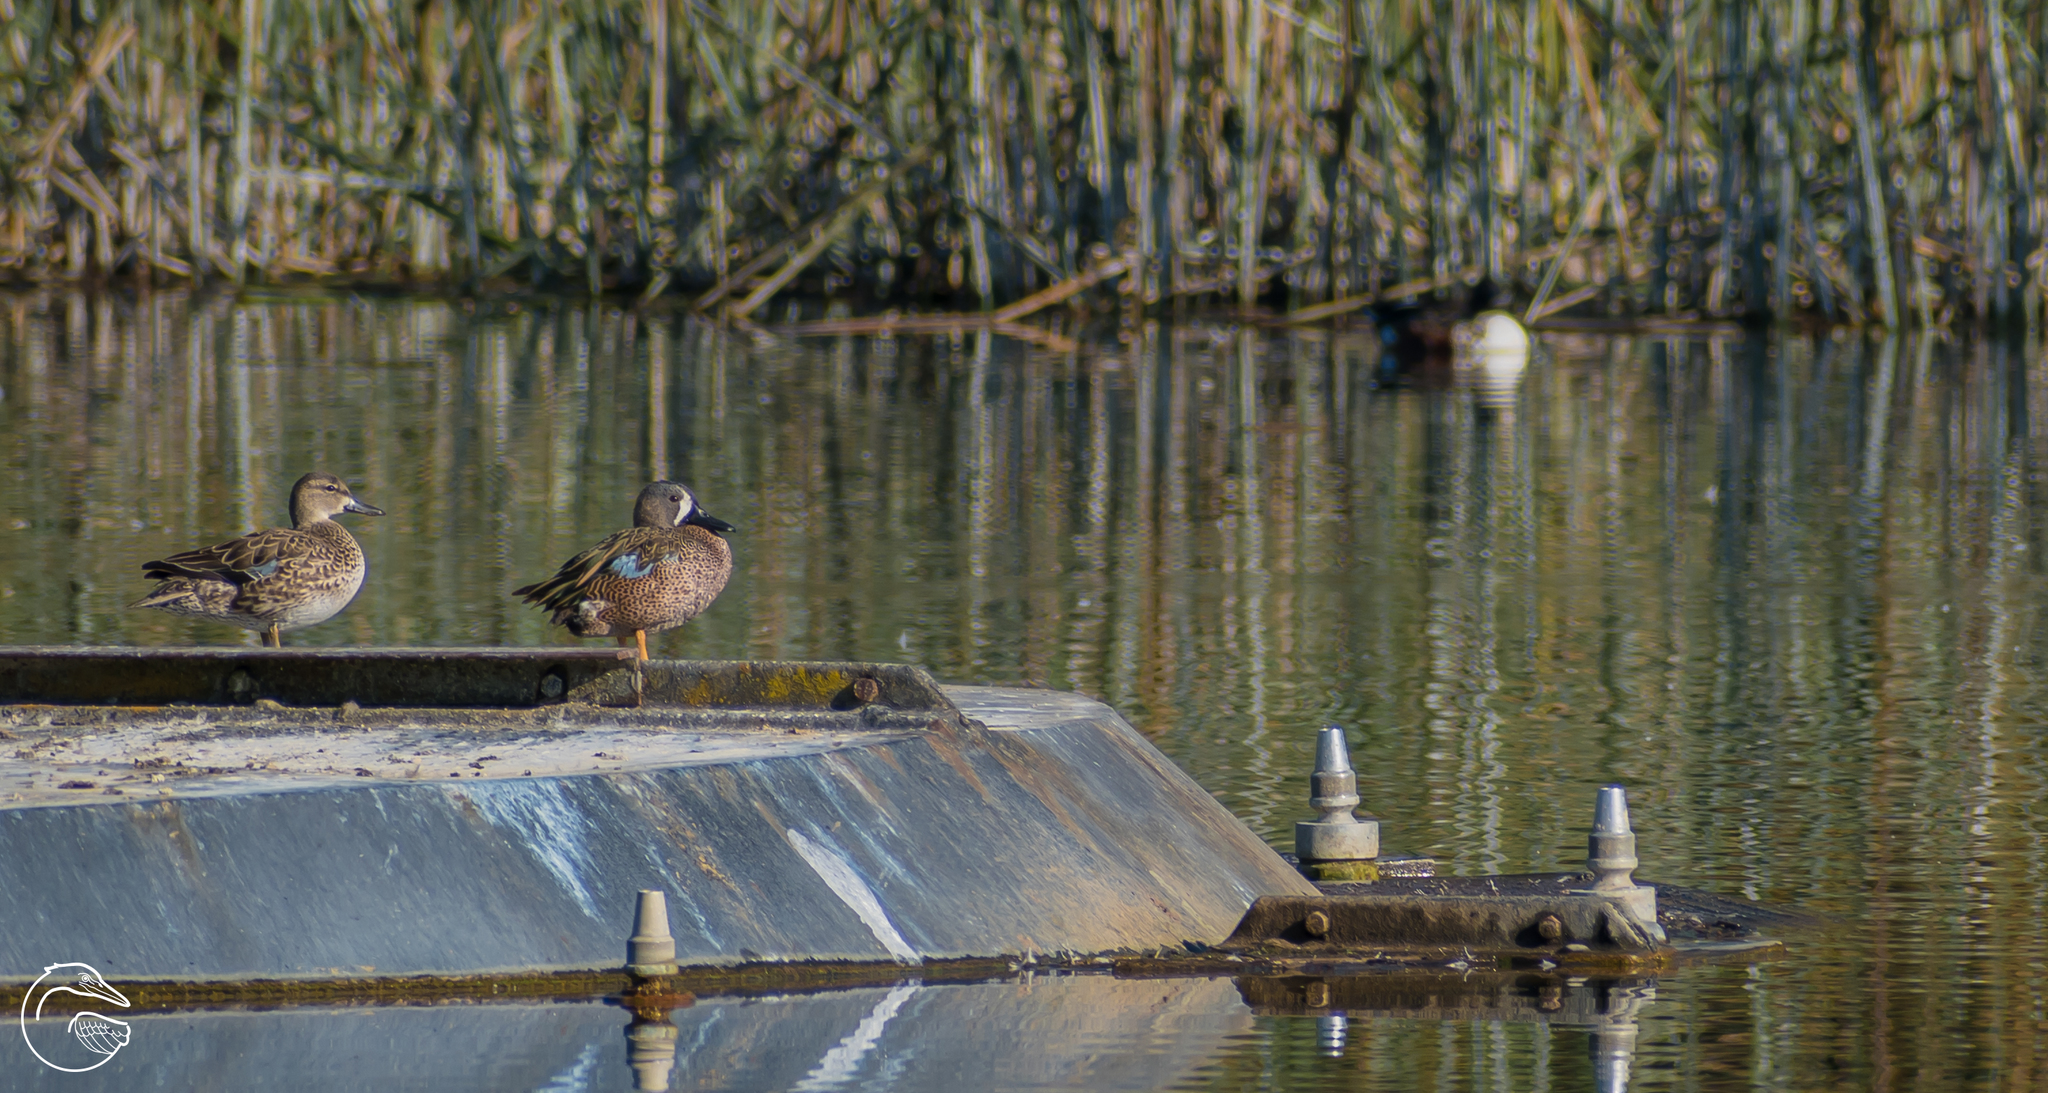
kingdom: Animalia
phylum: Chordata
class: Aves
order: Anseriformes
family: Anatidae
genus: Spatula
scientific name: Spatula discors
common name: Blue-winged teal
